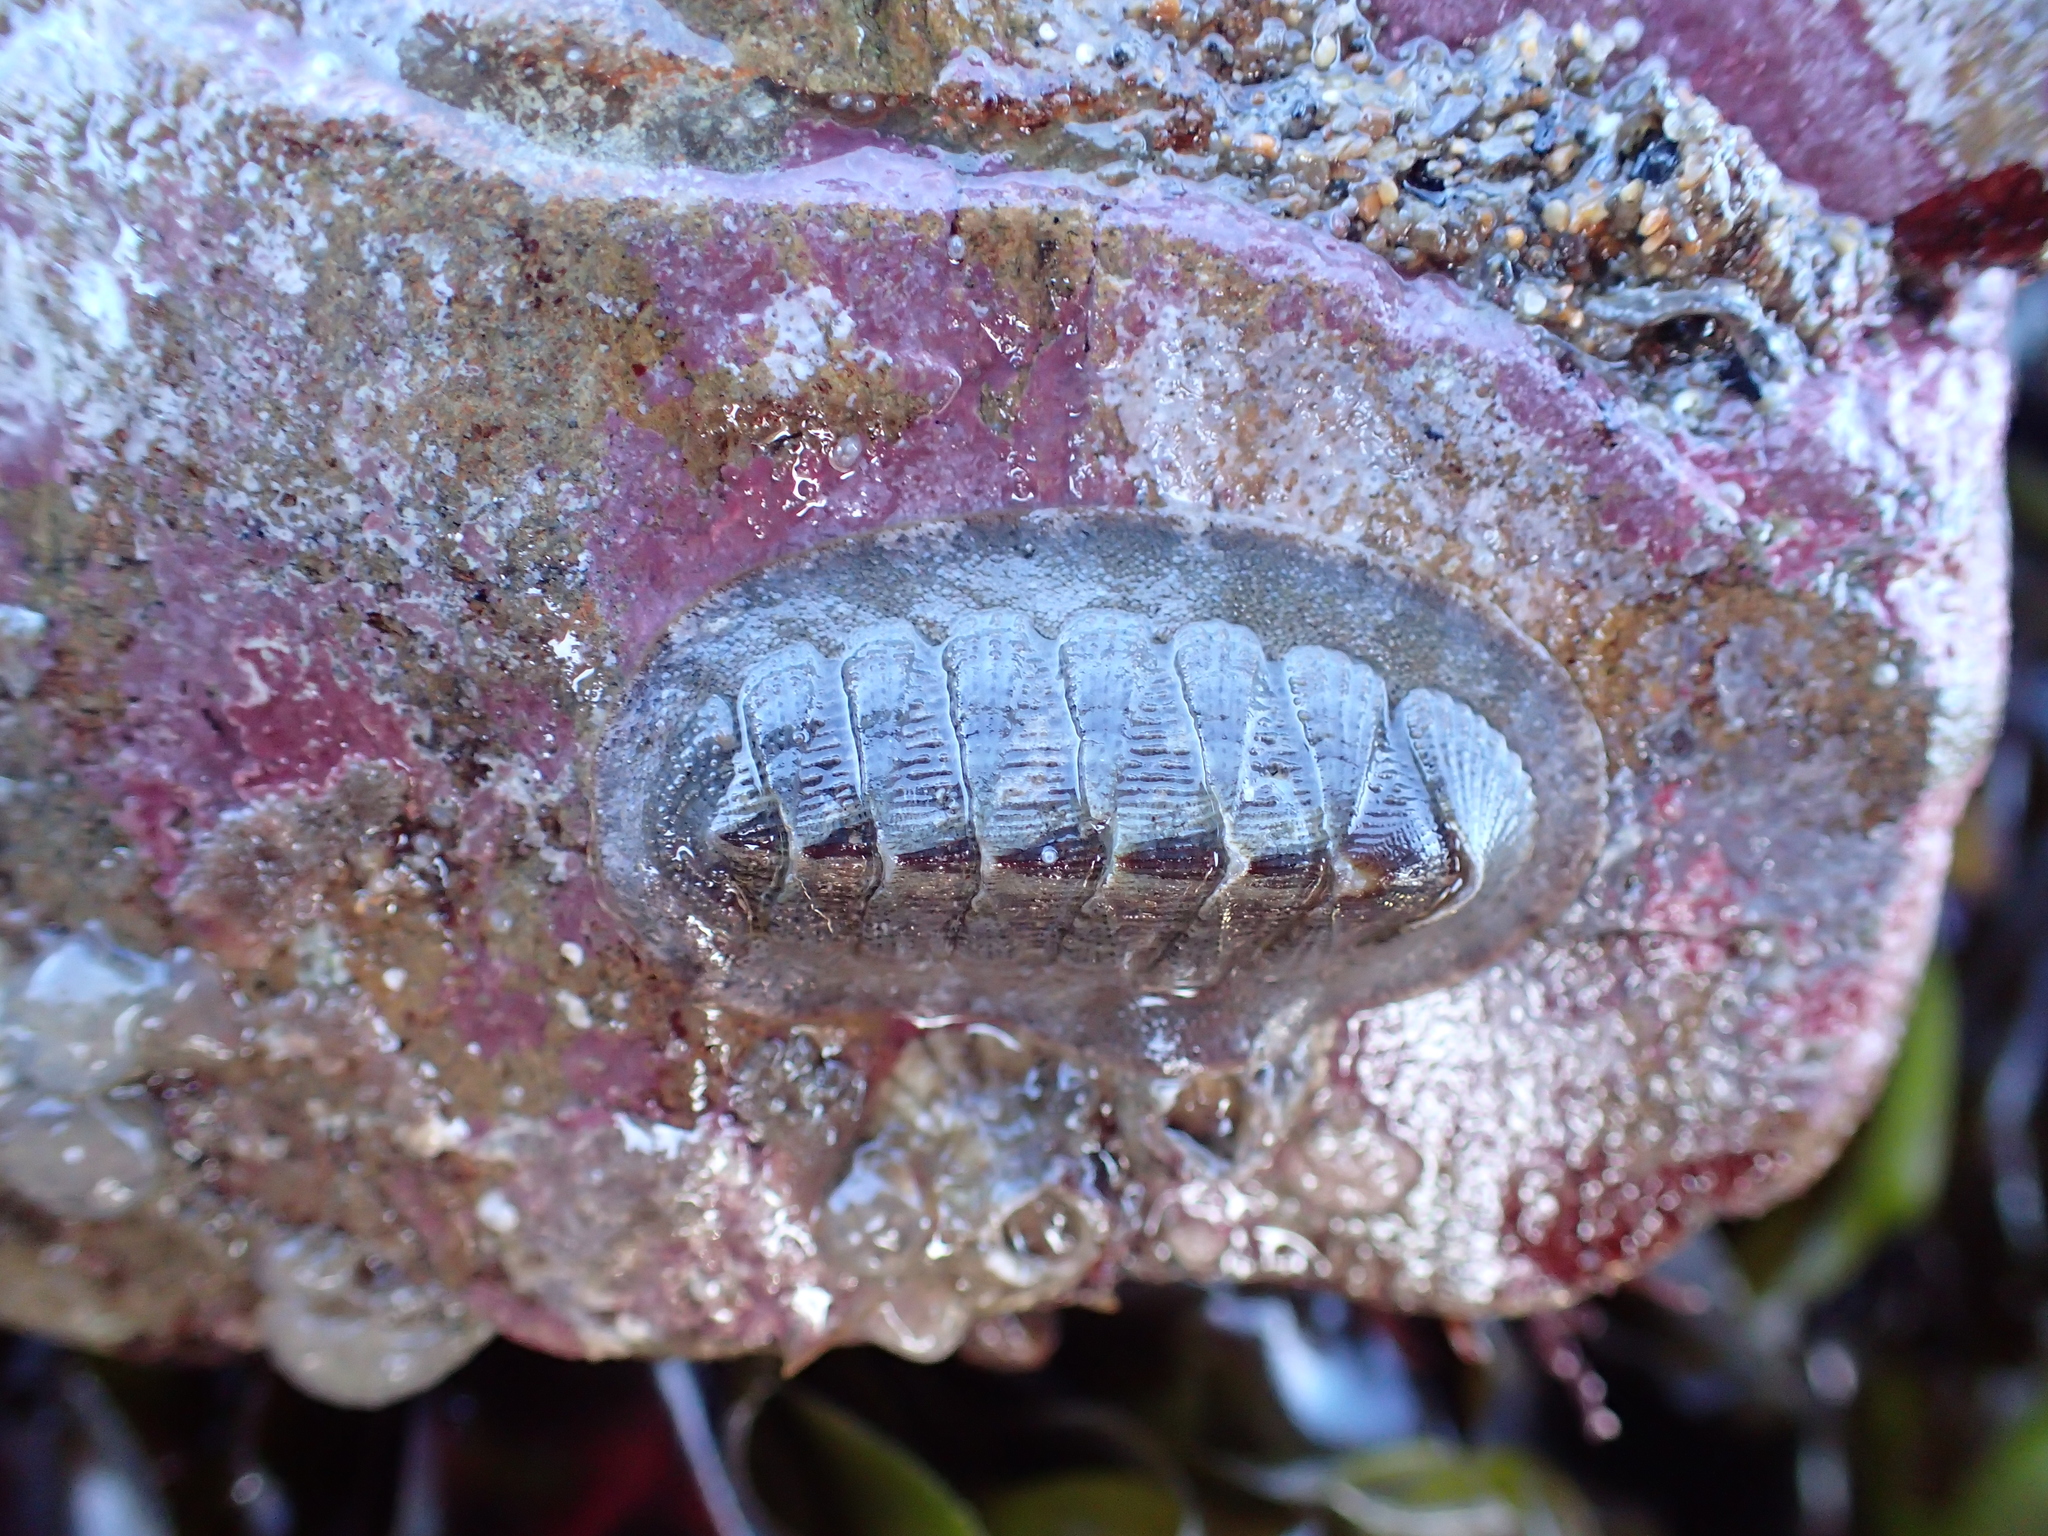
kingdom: Animalia
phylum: Mollusca
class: Polyplacophora
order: Chitonida
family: Ischnochitonidae
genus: Lepidozona
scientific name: Lepidozona cooperi
